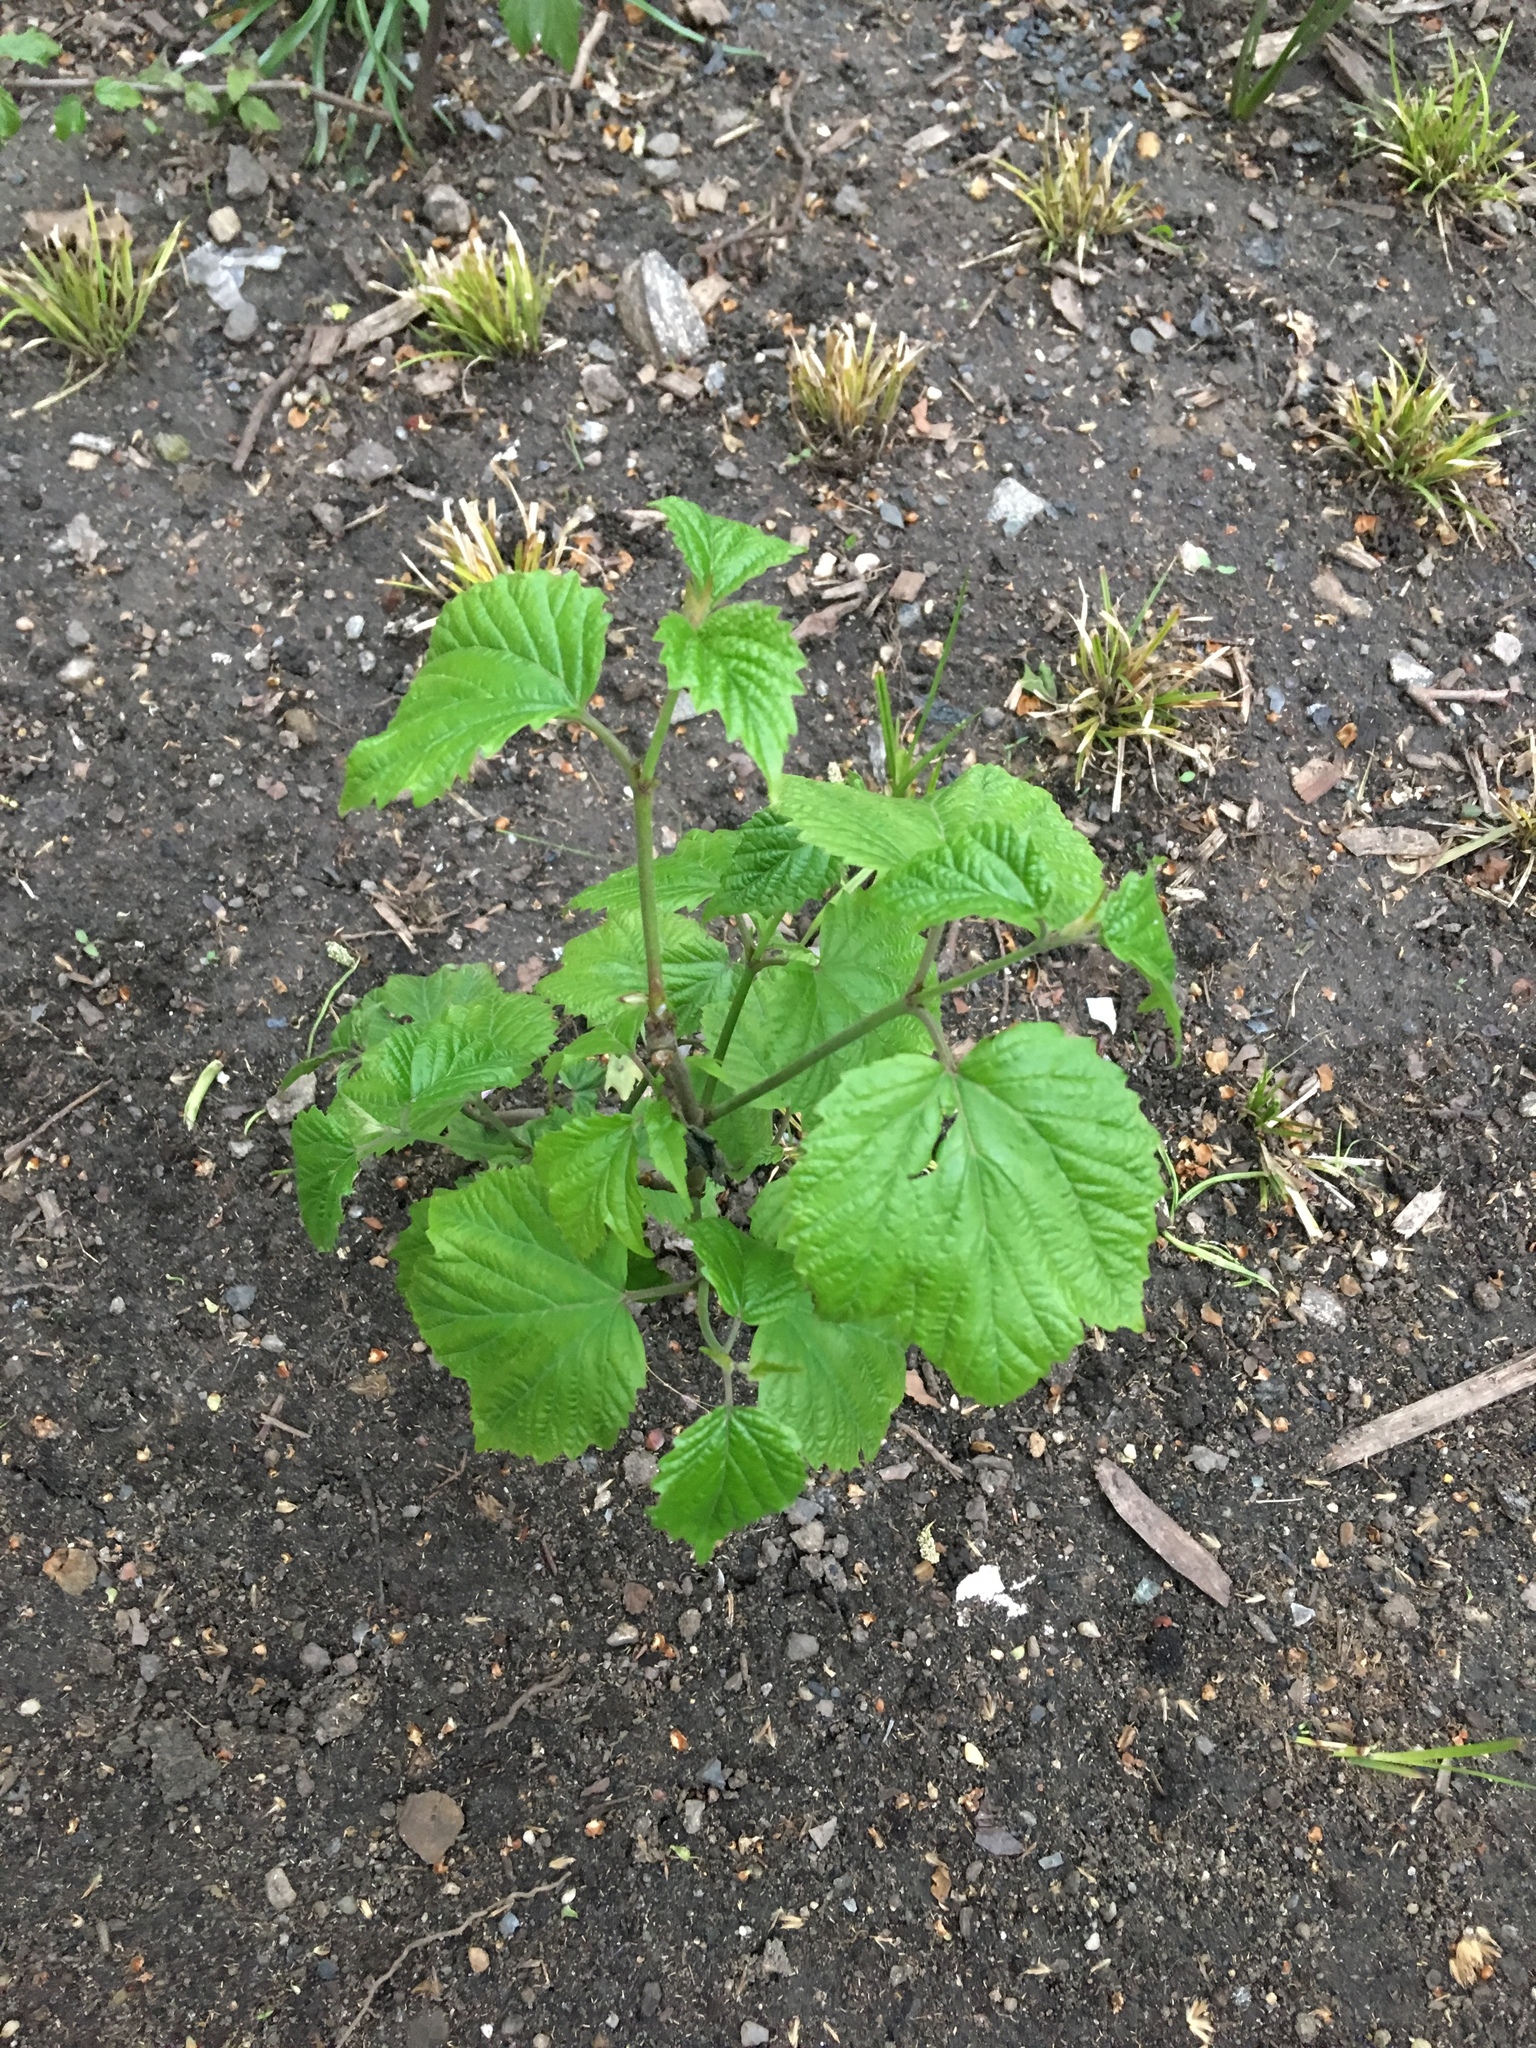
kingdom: Plantae
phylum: Tracheophyta
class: Magnoliopsida
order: Dipsacales
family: Viburnaceae
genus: Viburnum
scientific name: Viburnum acerifolium
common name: Dockmackie
